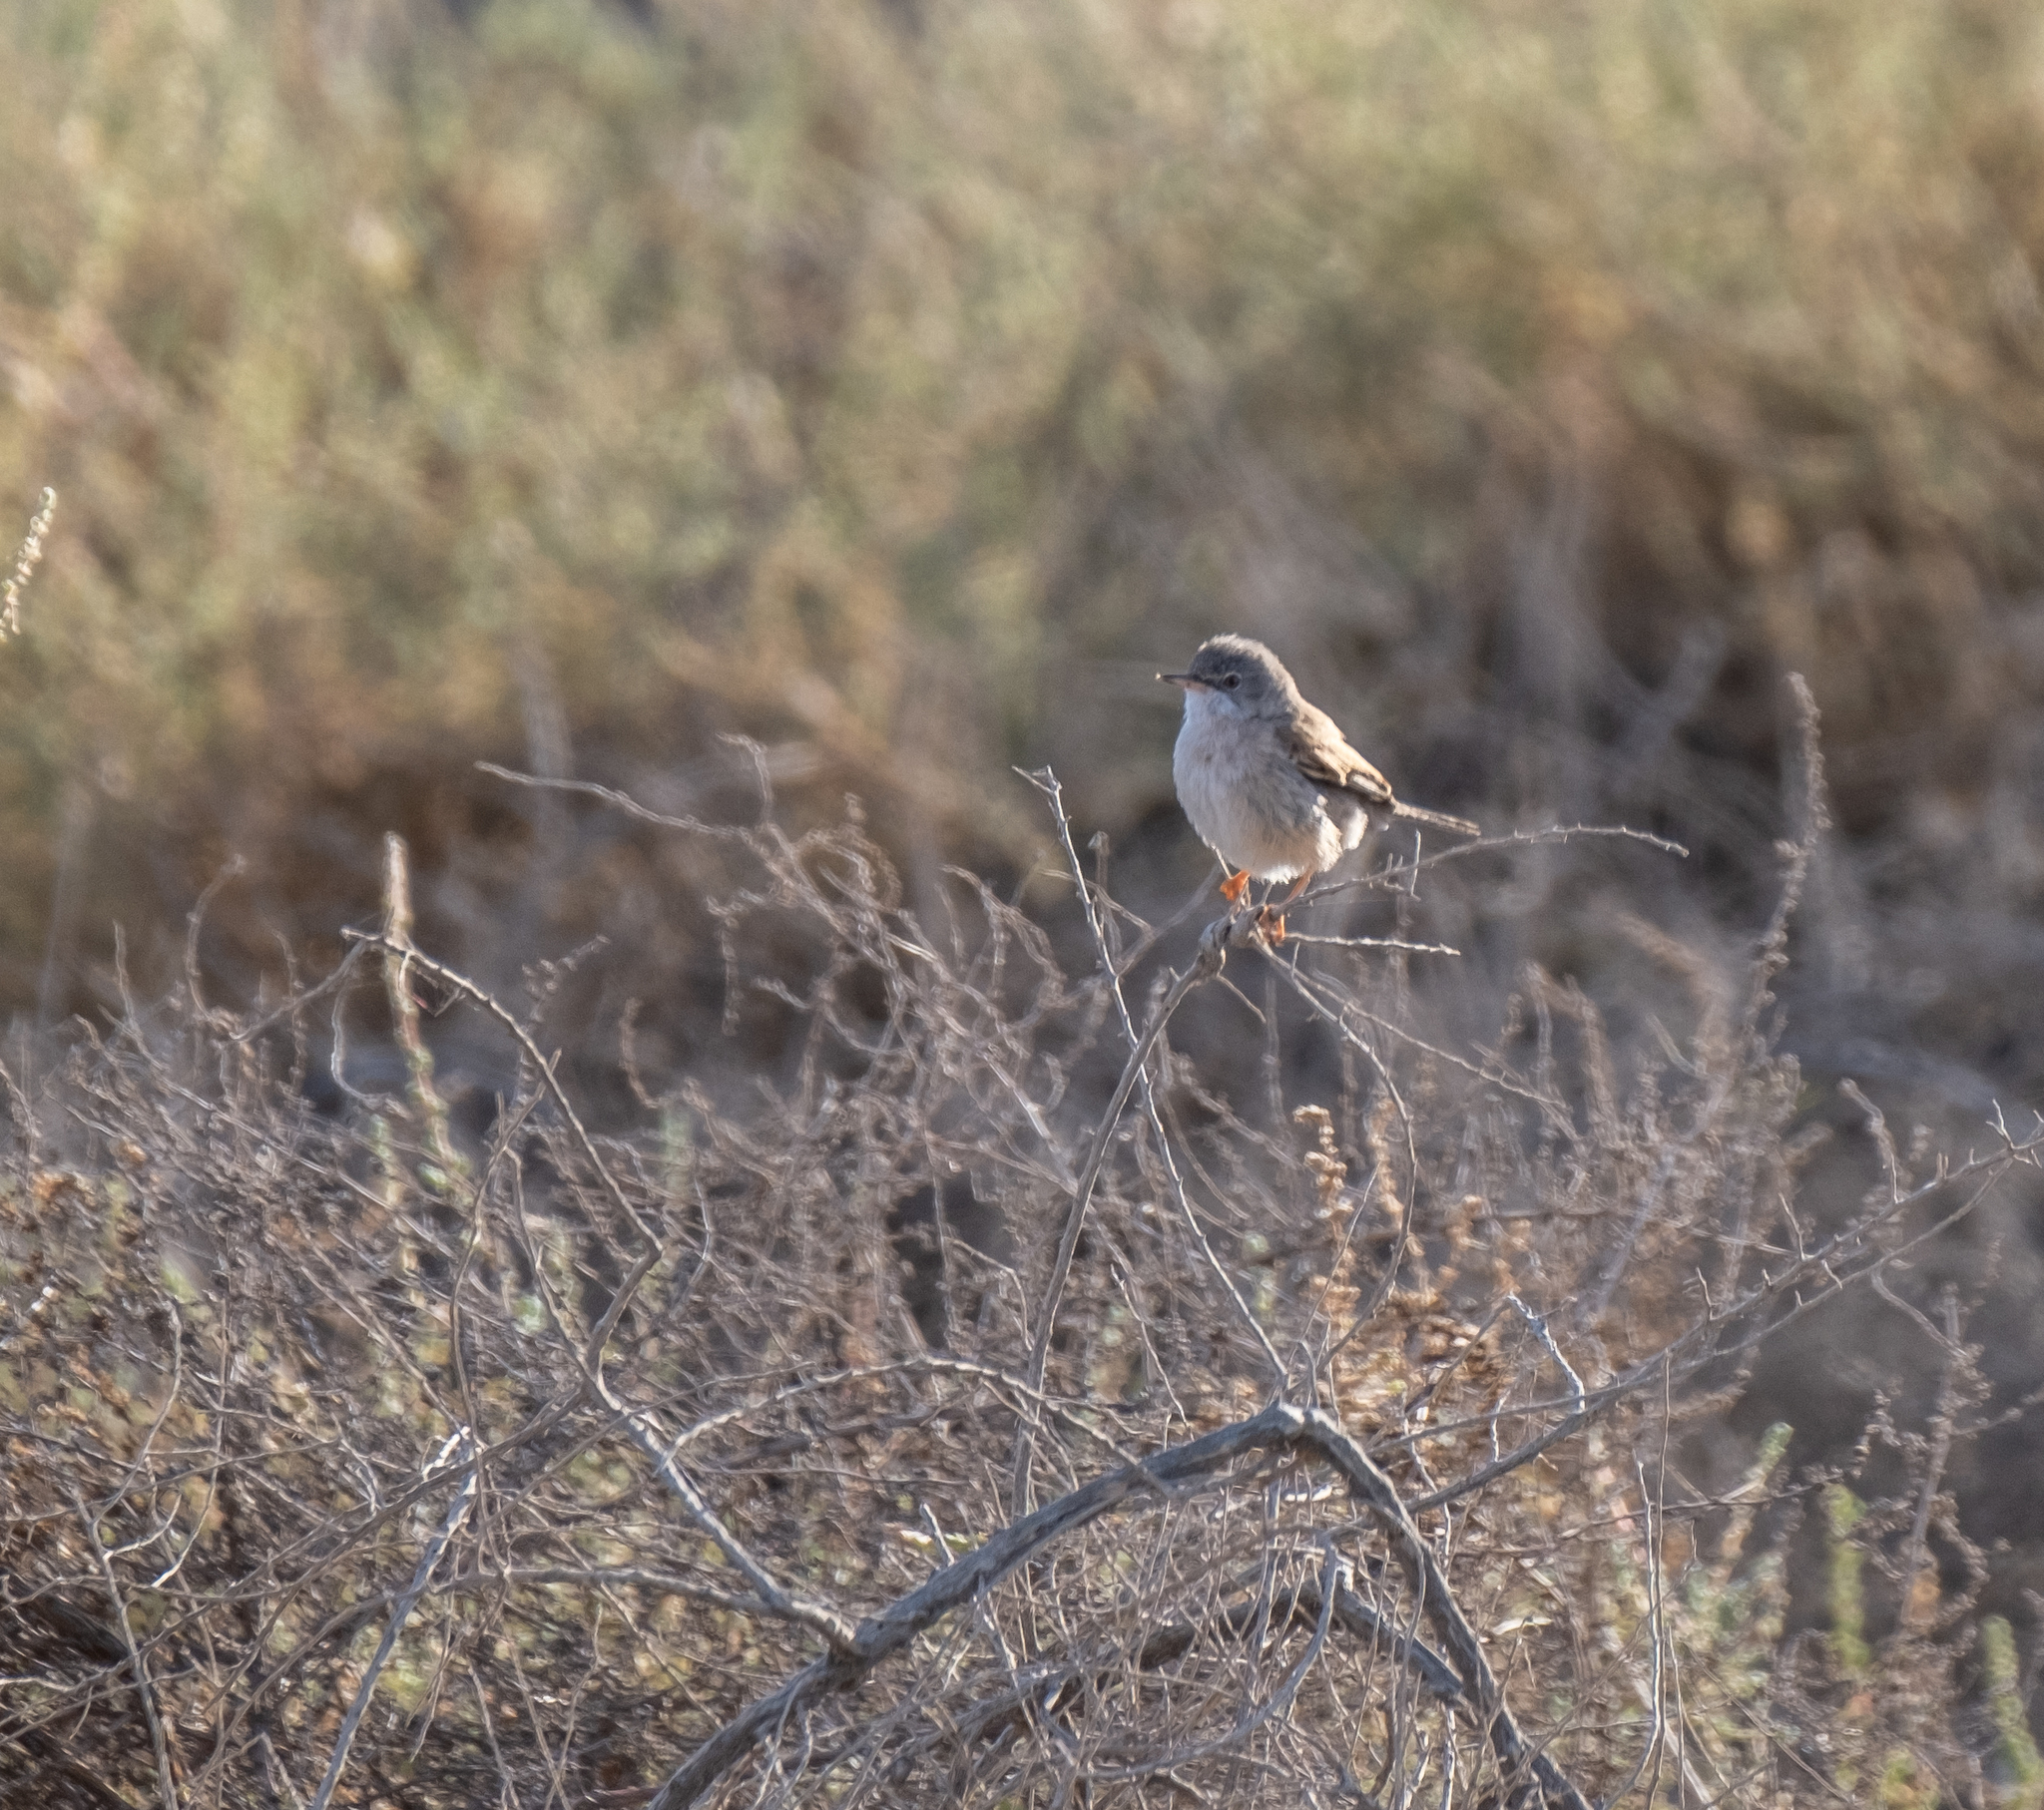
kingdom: Animalia
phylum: Chordata
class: Aves
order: Passeriformes
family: Sylviidae
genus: Sylvia
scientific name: Sylvia conspicillata
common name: Spectacled warbler
